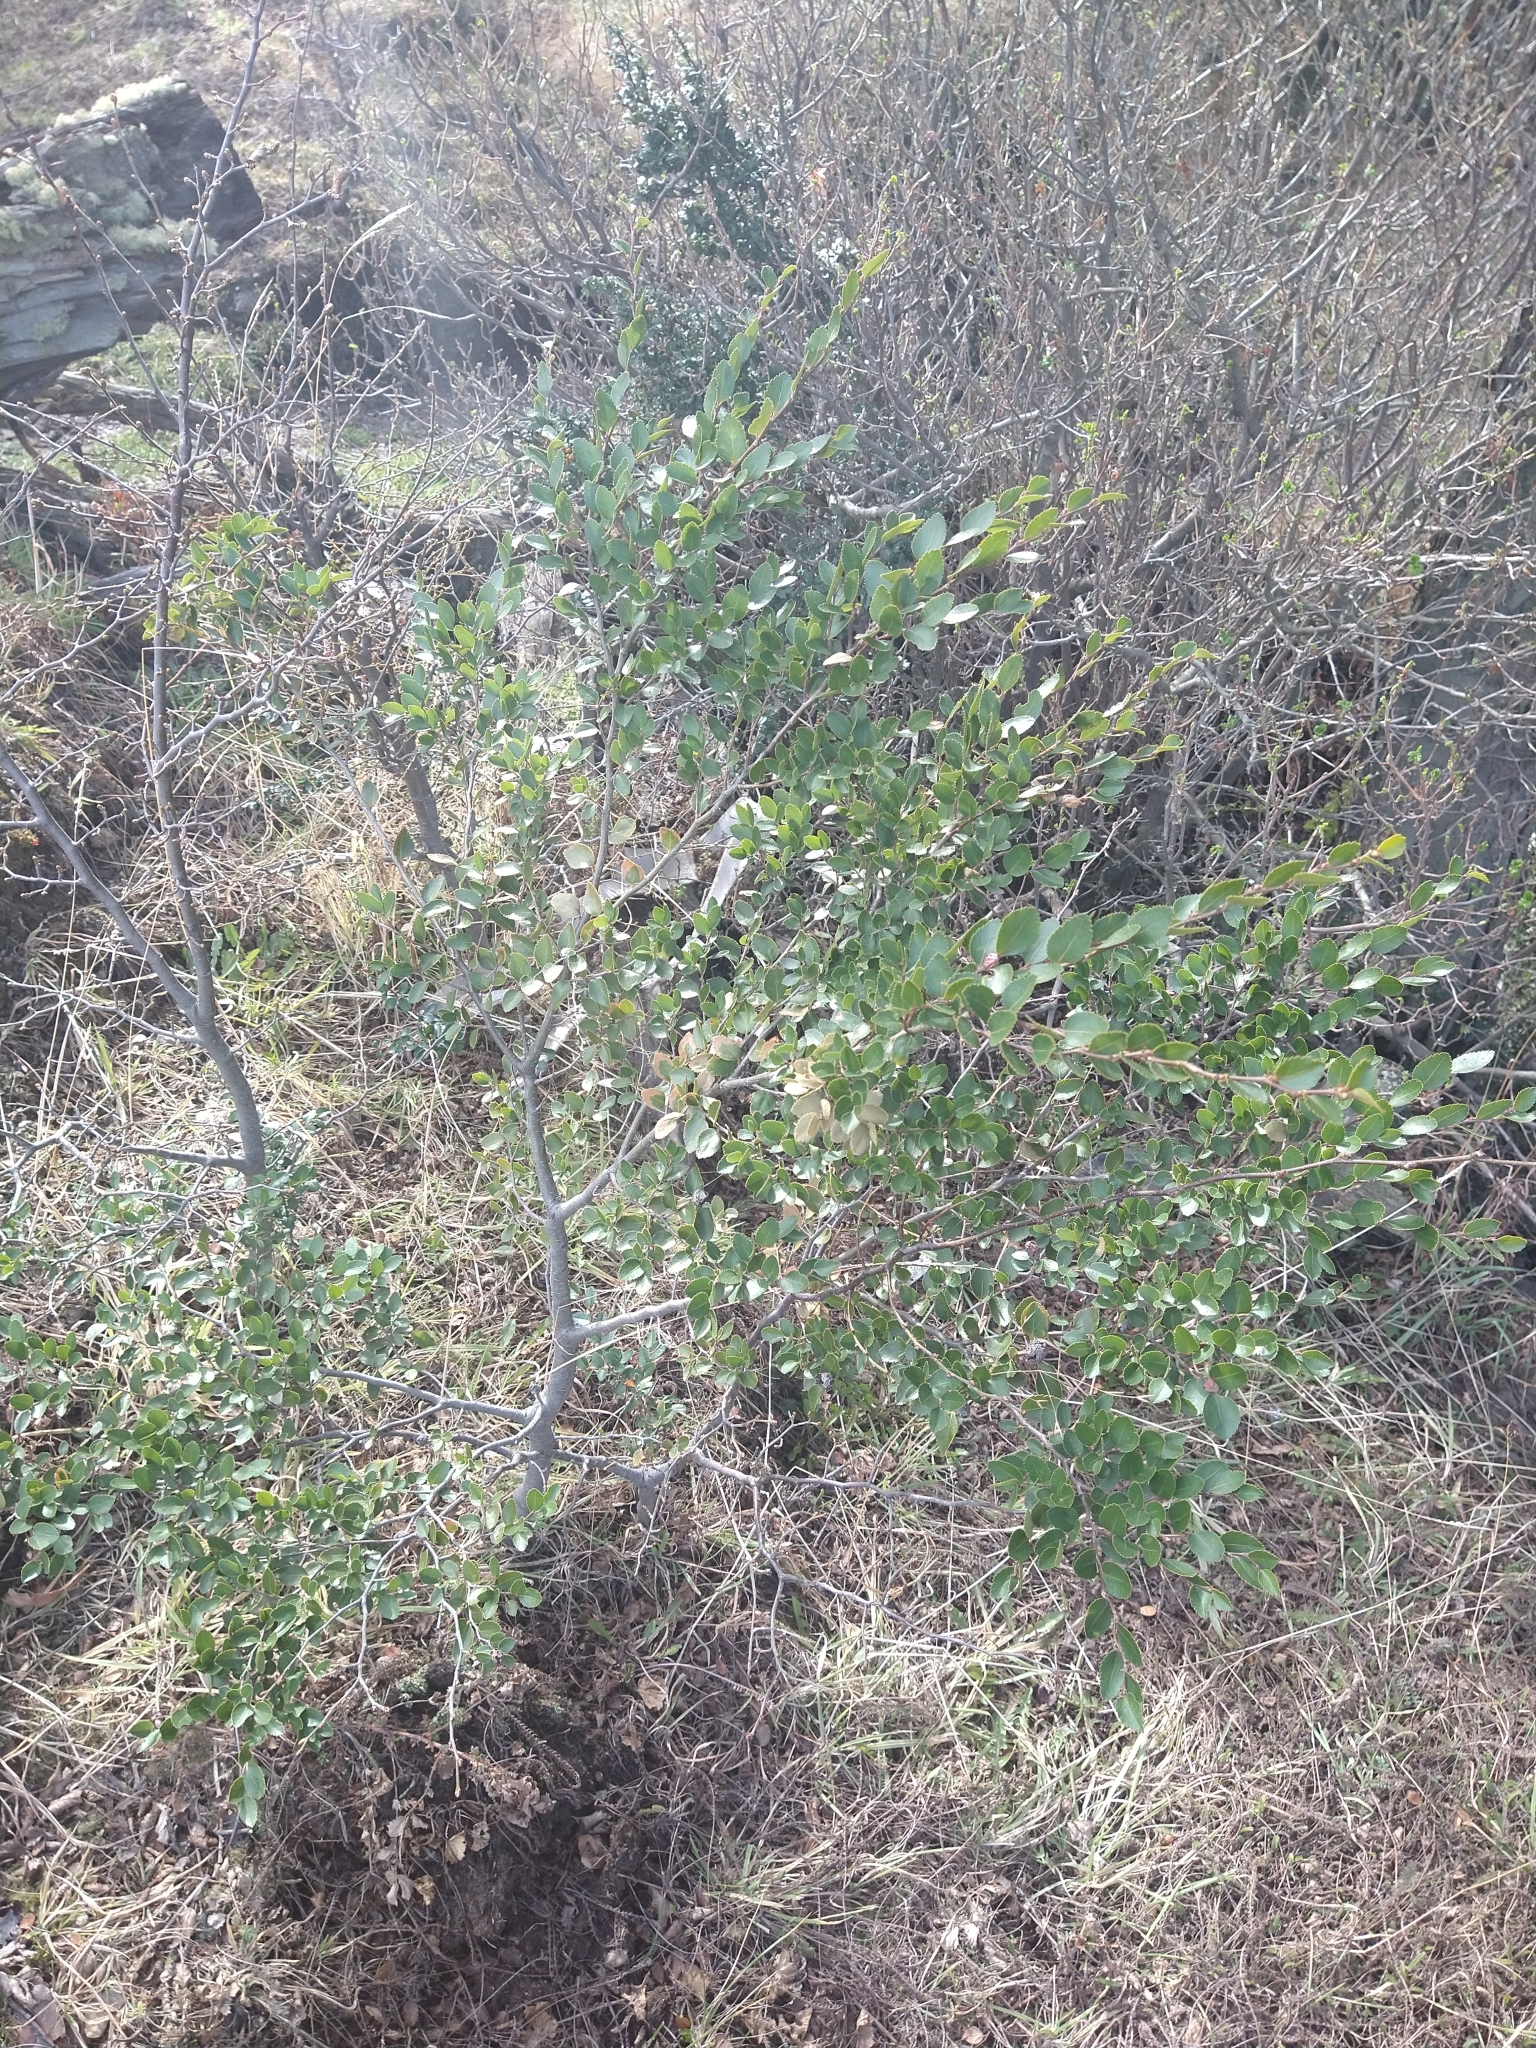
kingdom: Plantae
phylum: Tracheophyta
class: Magnoliopsida
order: Fagales
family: Nothofagaceae
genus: Nothofagus
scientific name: Nothofagus betuloides
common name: Magellan's beech
